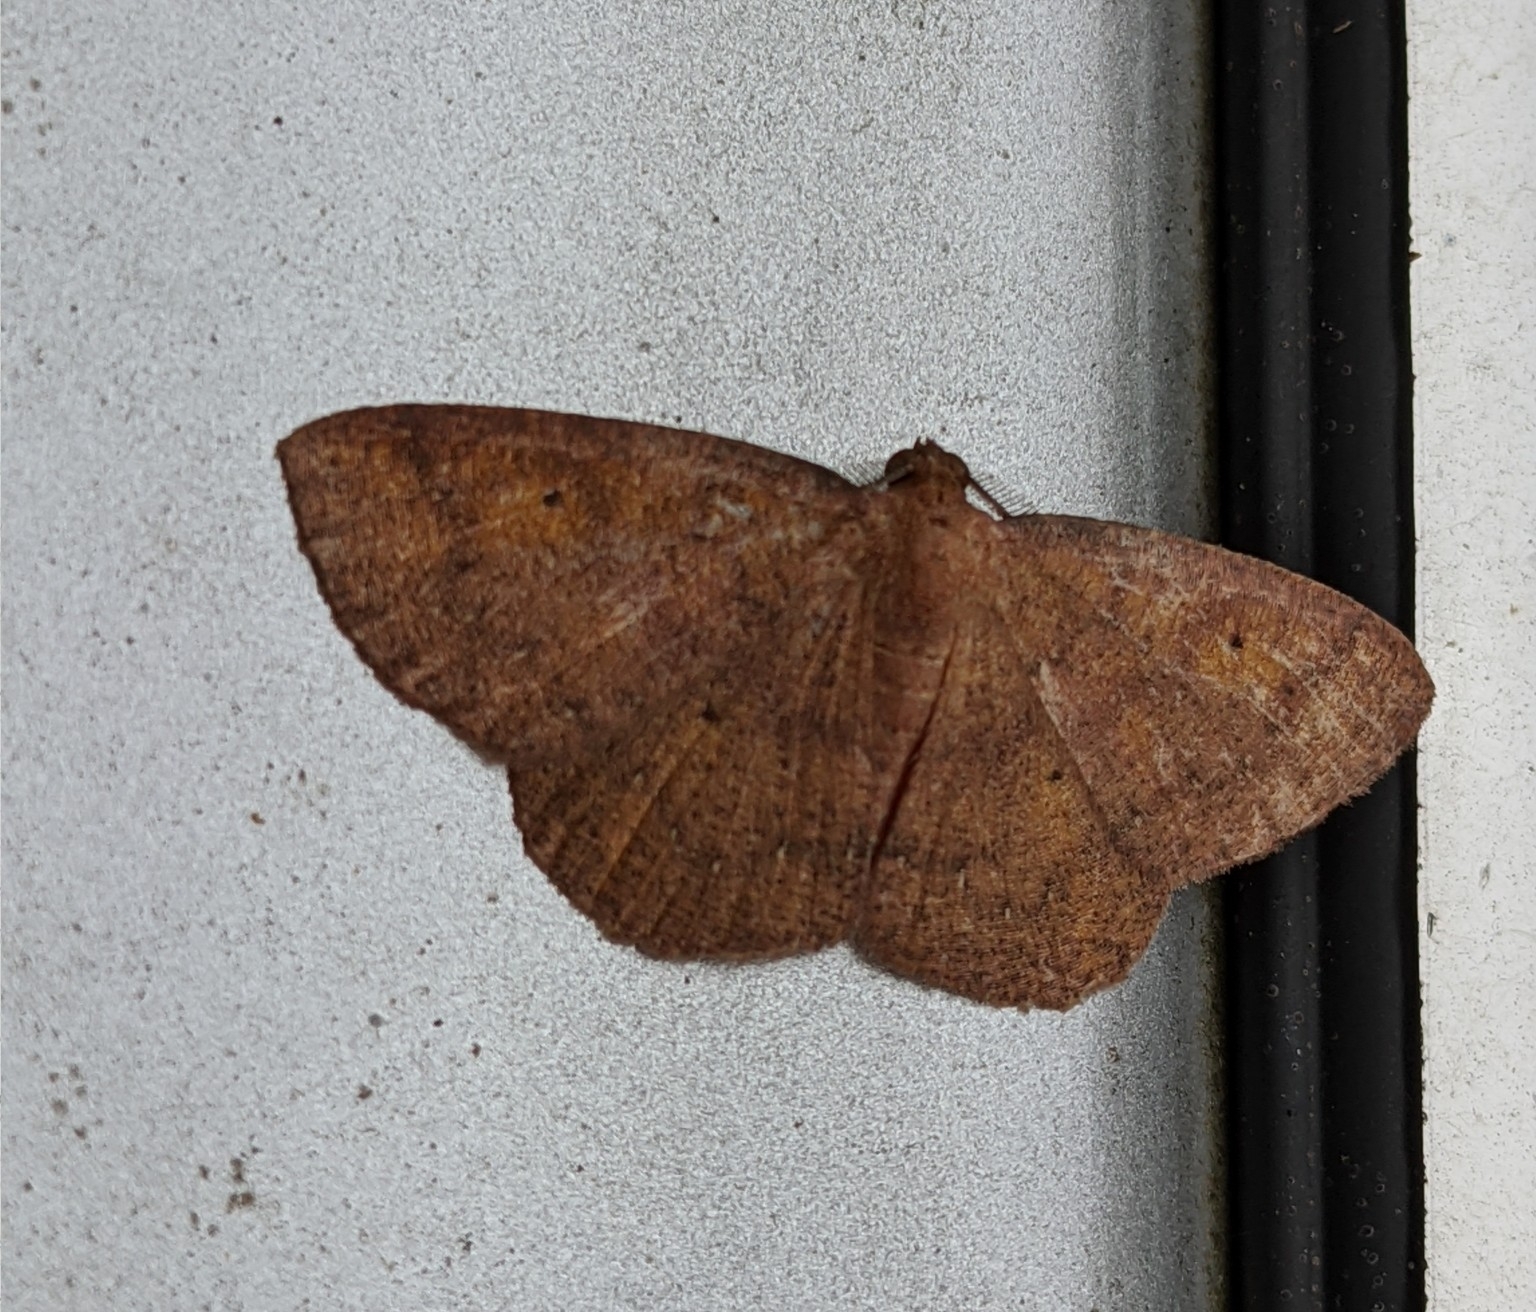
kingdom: Animalia
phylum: Arthropoda
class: Insecta
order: Lepidoptera
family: Geometridae
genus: Ilexia
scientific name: Ilexia intractata
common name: Black-dotted ruddy moth
